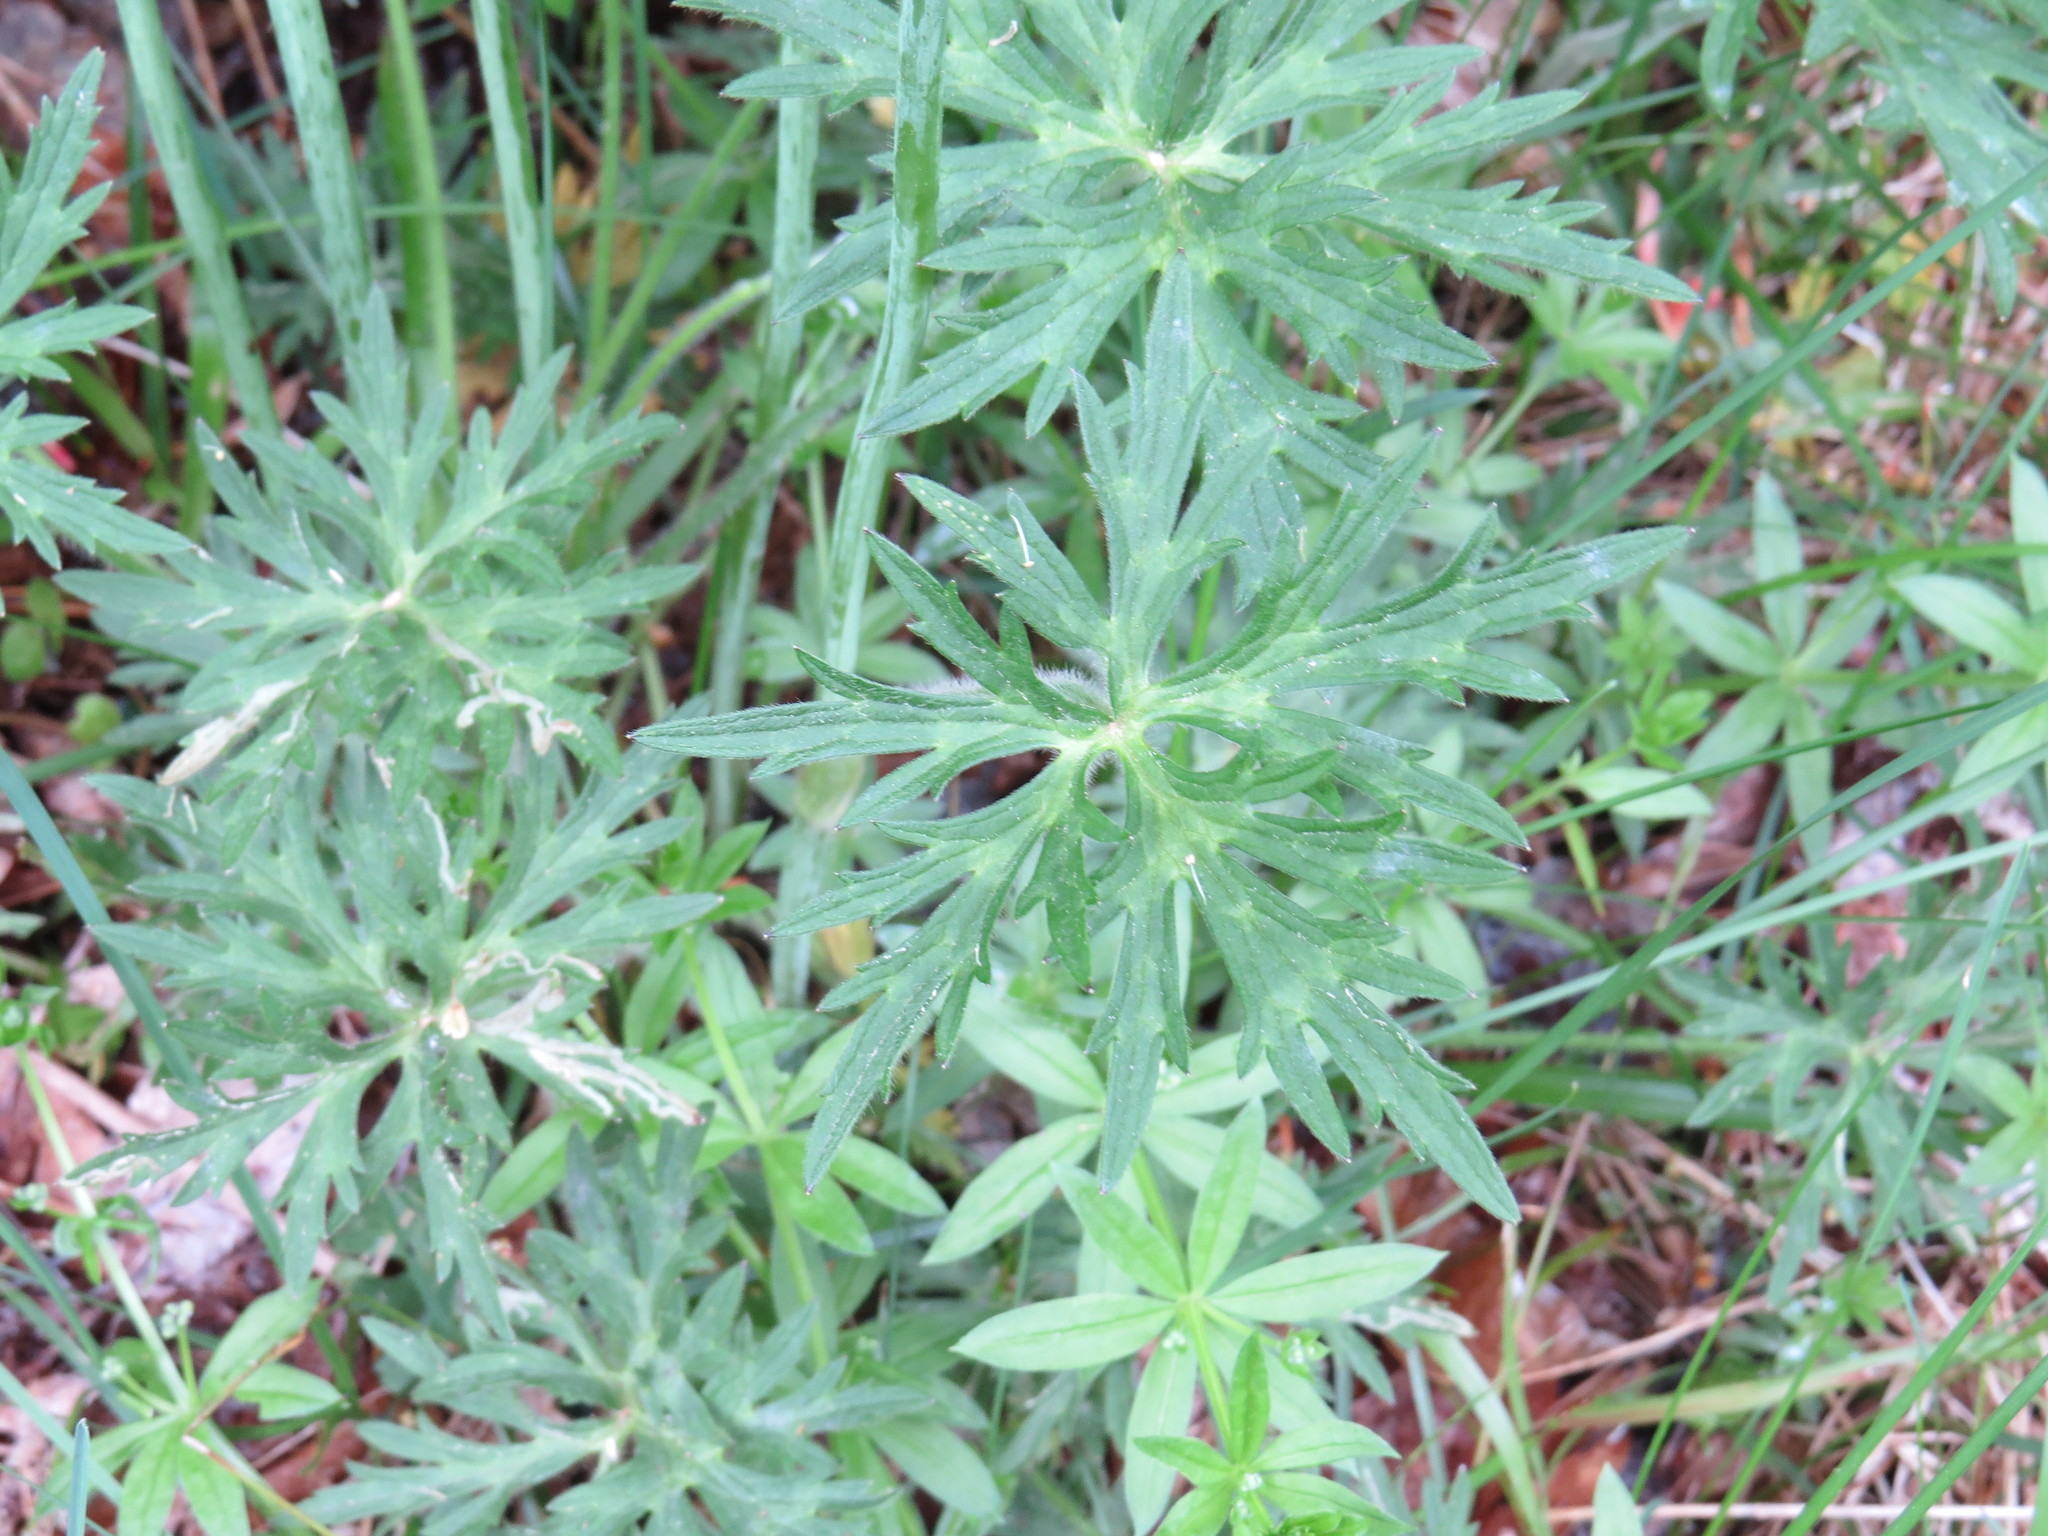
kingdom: Plantae
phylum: Tracheophyta
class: Magnoliopsida
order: Ranunculales
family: Ranunculaceae
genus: Ranunculus
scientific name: Ranunculus acris
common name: Meadow buttercup
